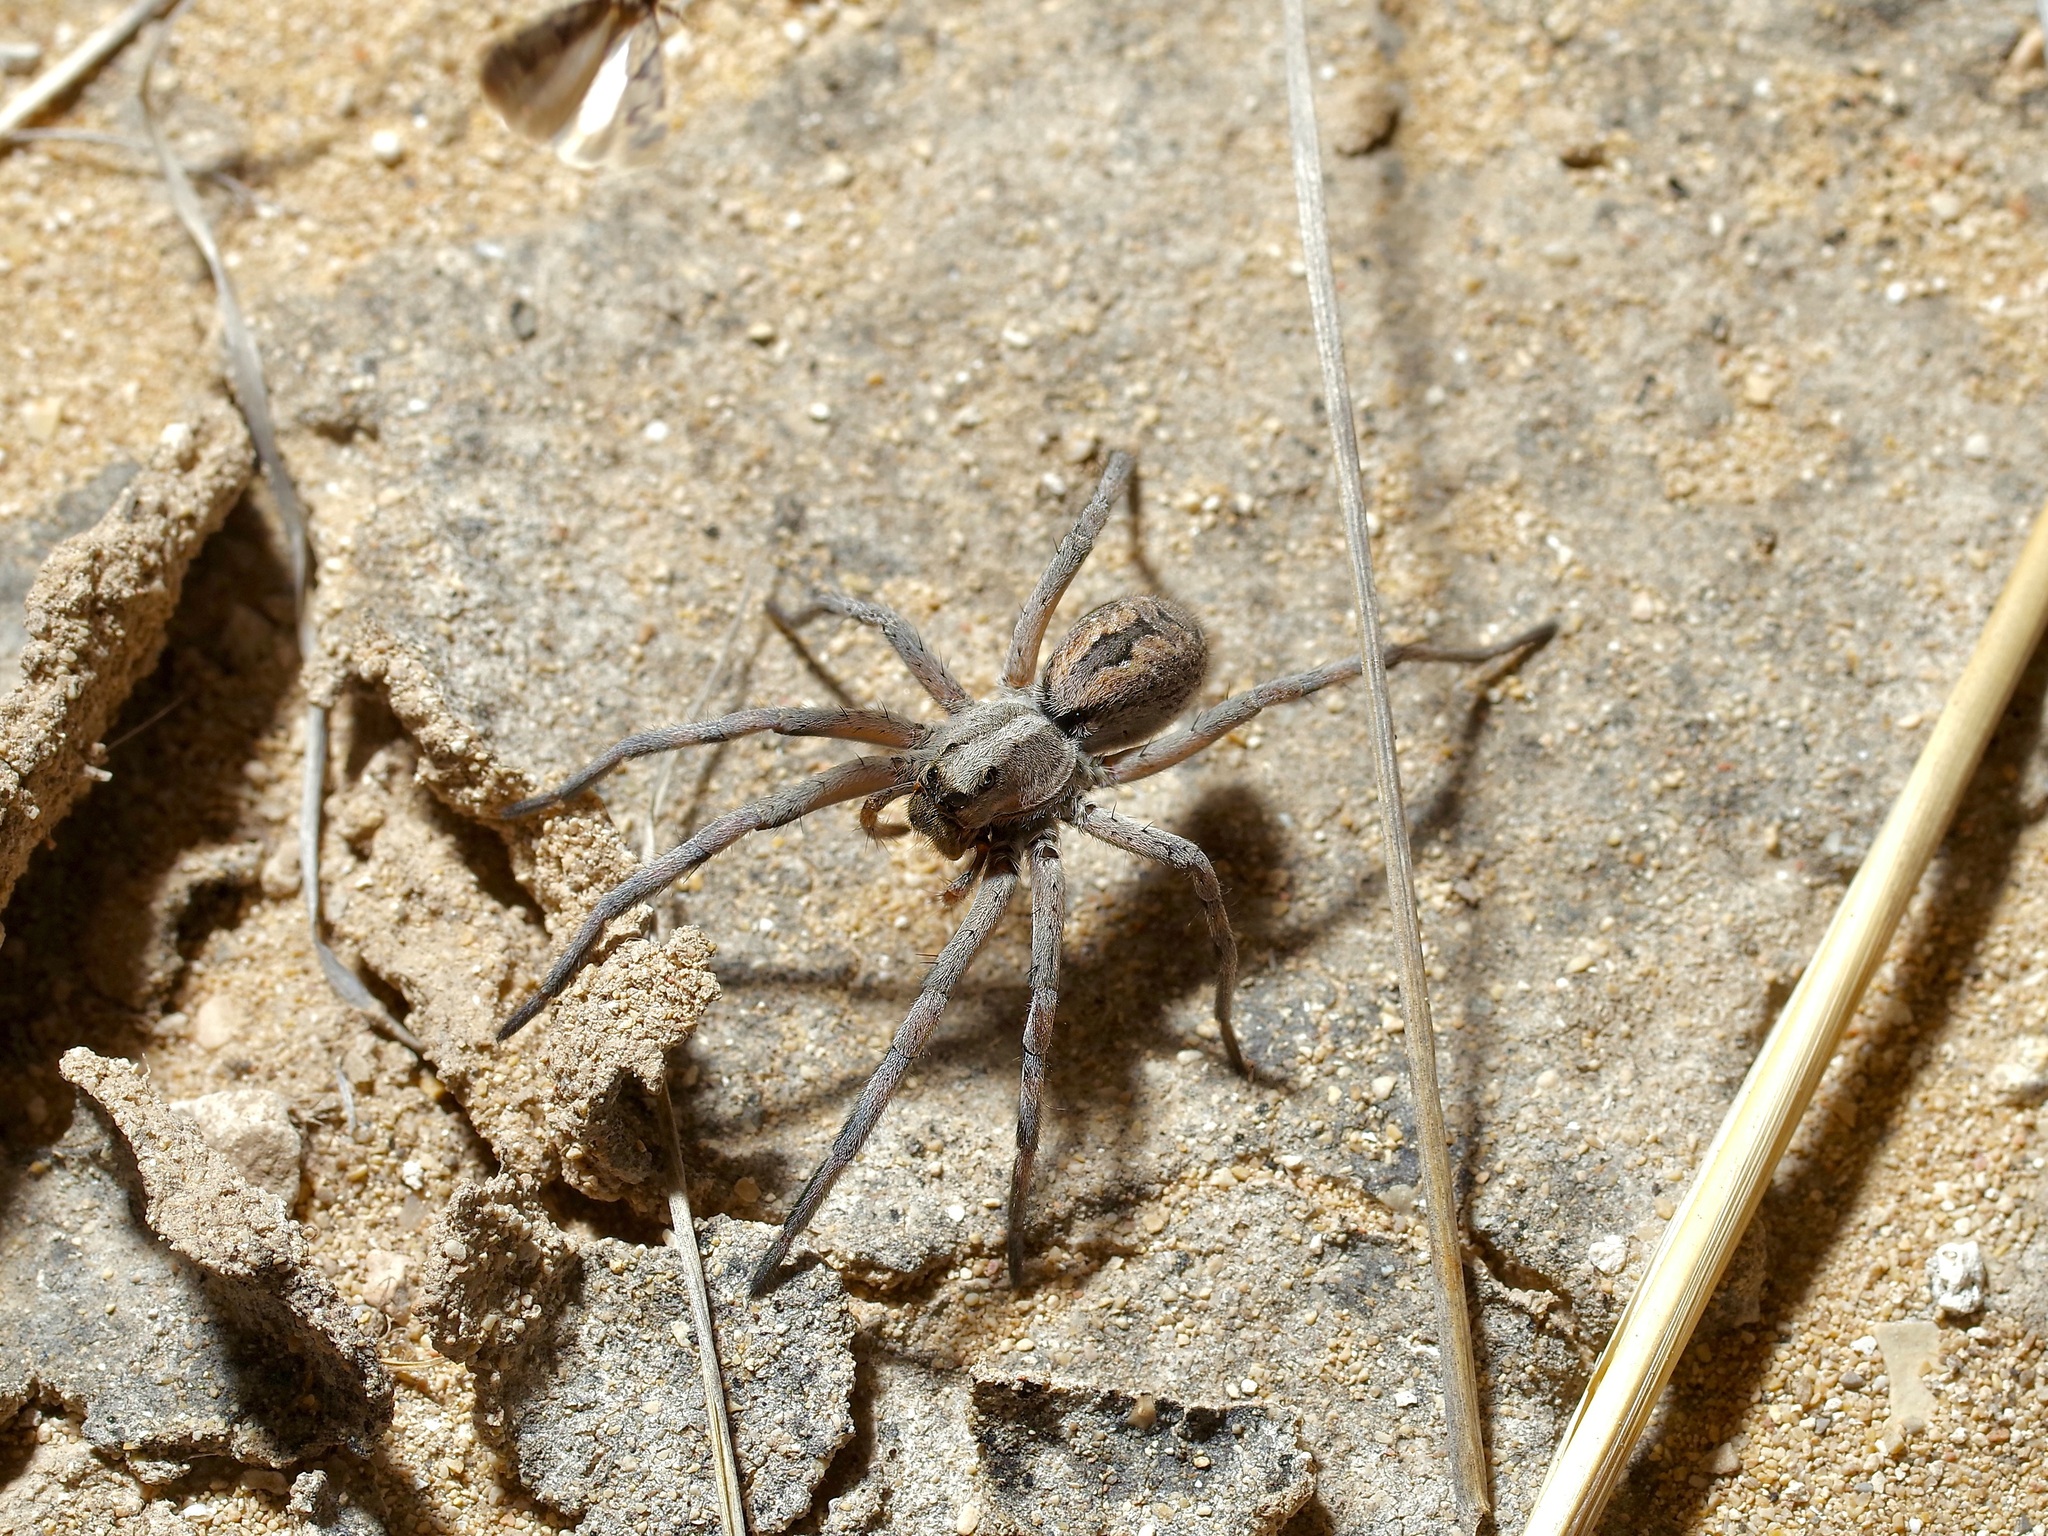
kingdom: Animalia
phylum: Arthropoda
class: Arachnida
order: Araneae
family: Lycosidae
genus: Hogna
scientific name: Hogna carolinensis
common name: Carolina wolf spider
